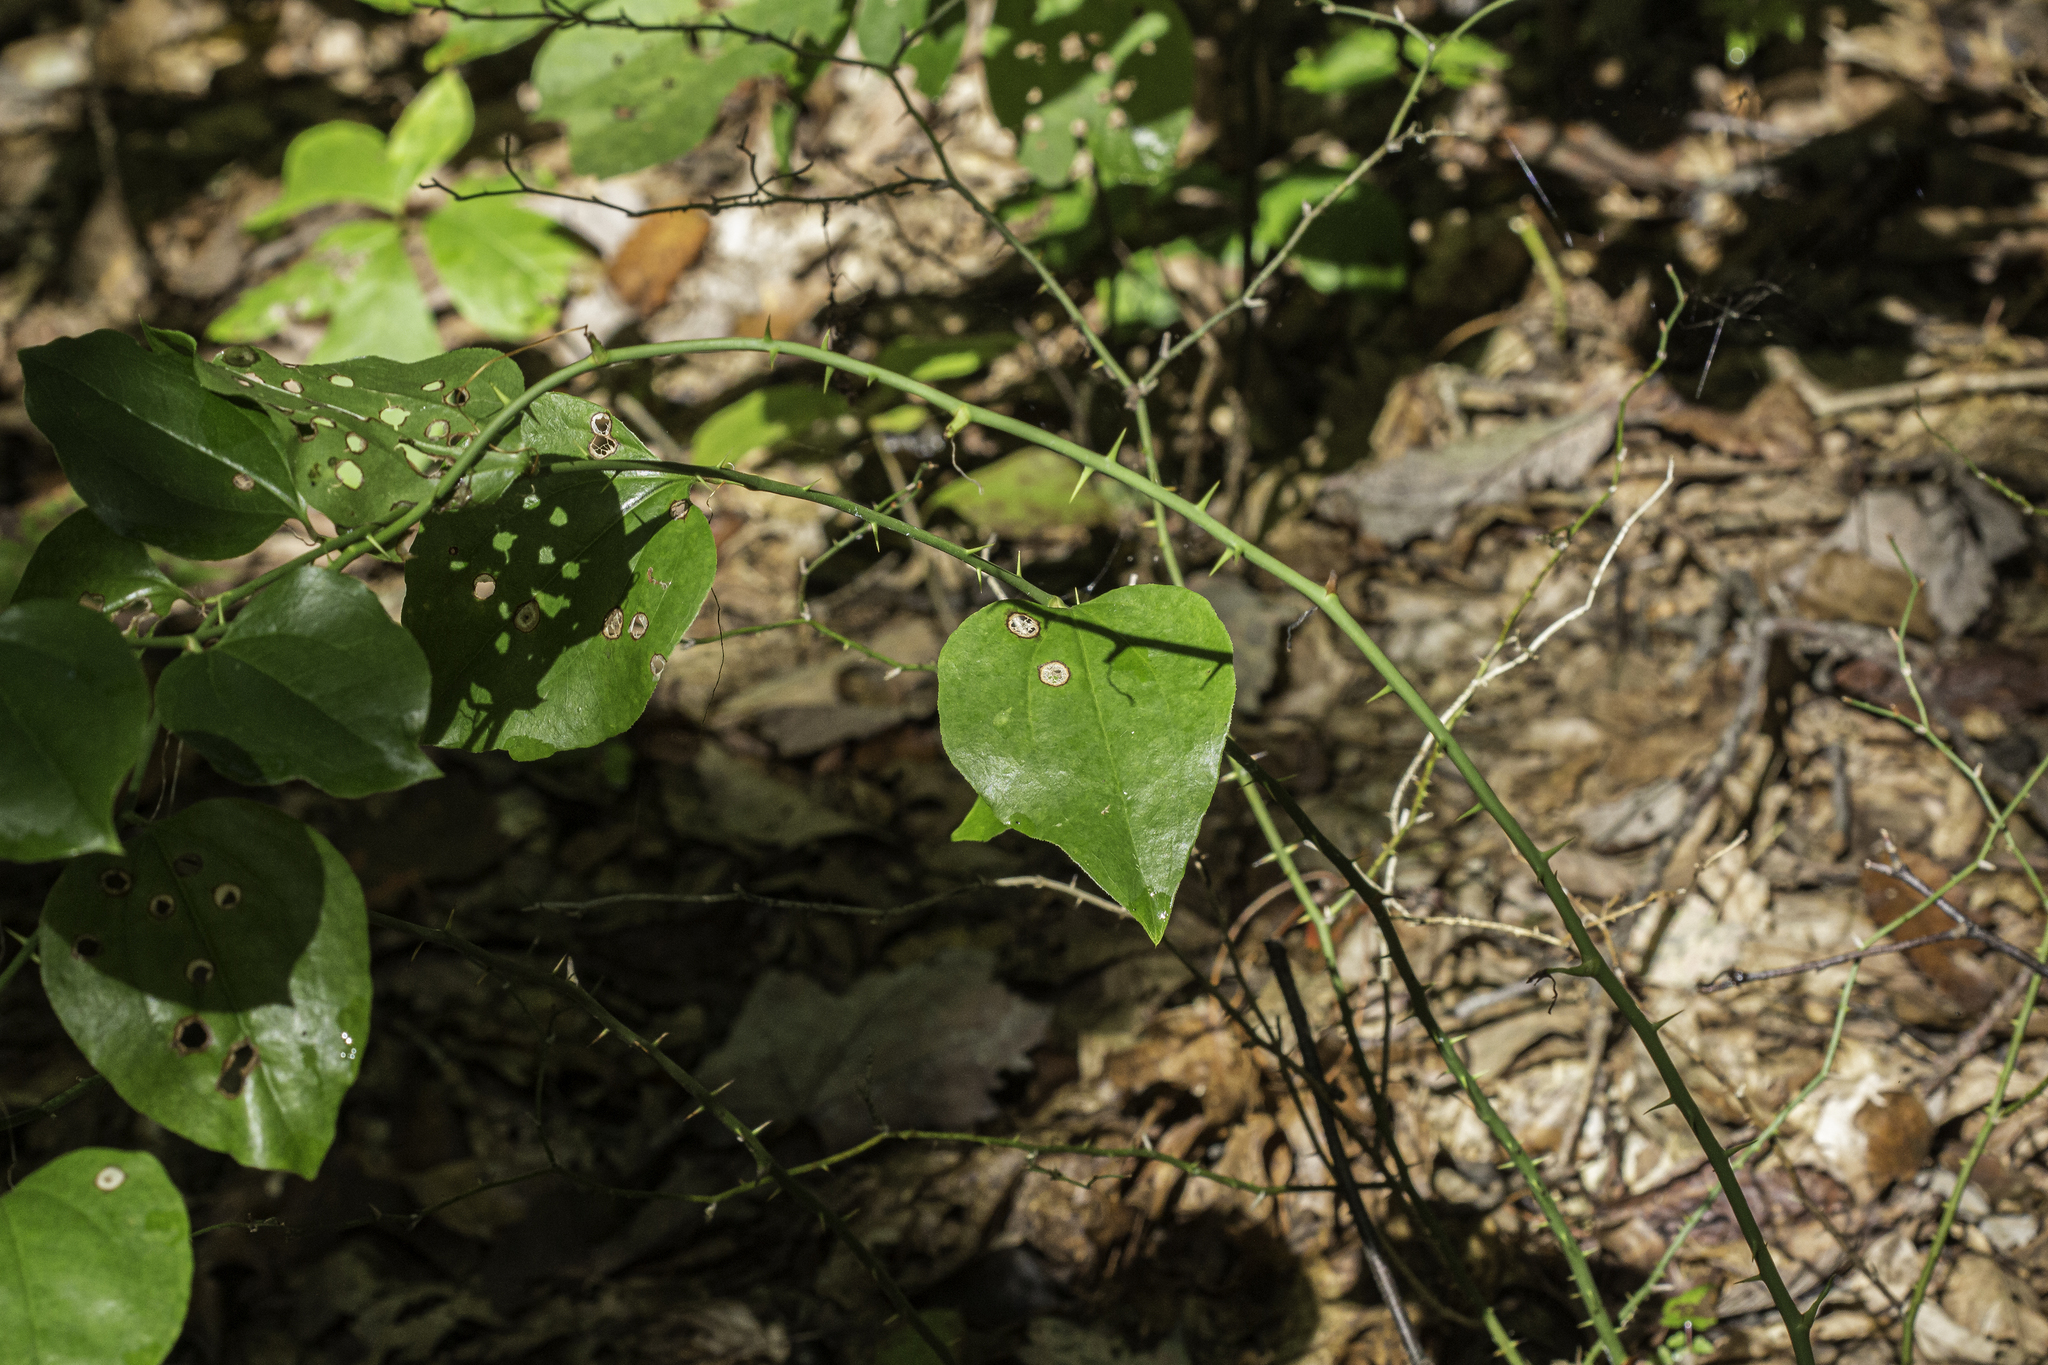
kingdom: Plantae
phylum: Tracheophyta
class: Liliopsida
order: Liliales
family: Smilacaceae
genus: Smilax
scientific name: Smilax rotundifolia
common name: Bullbriar
